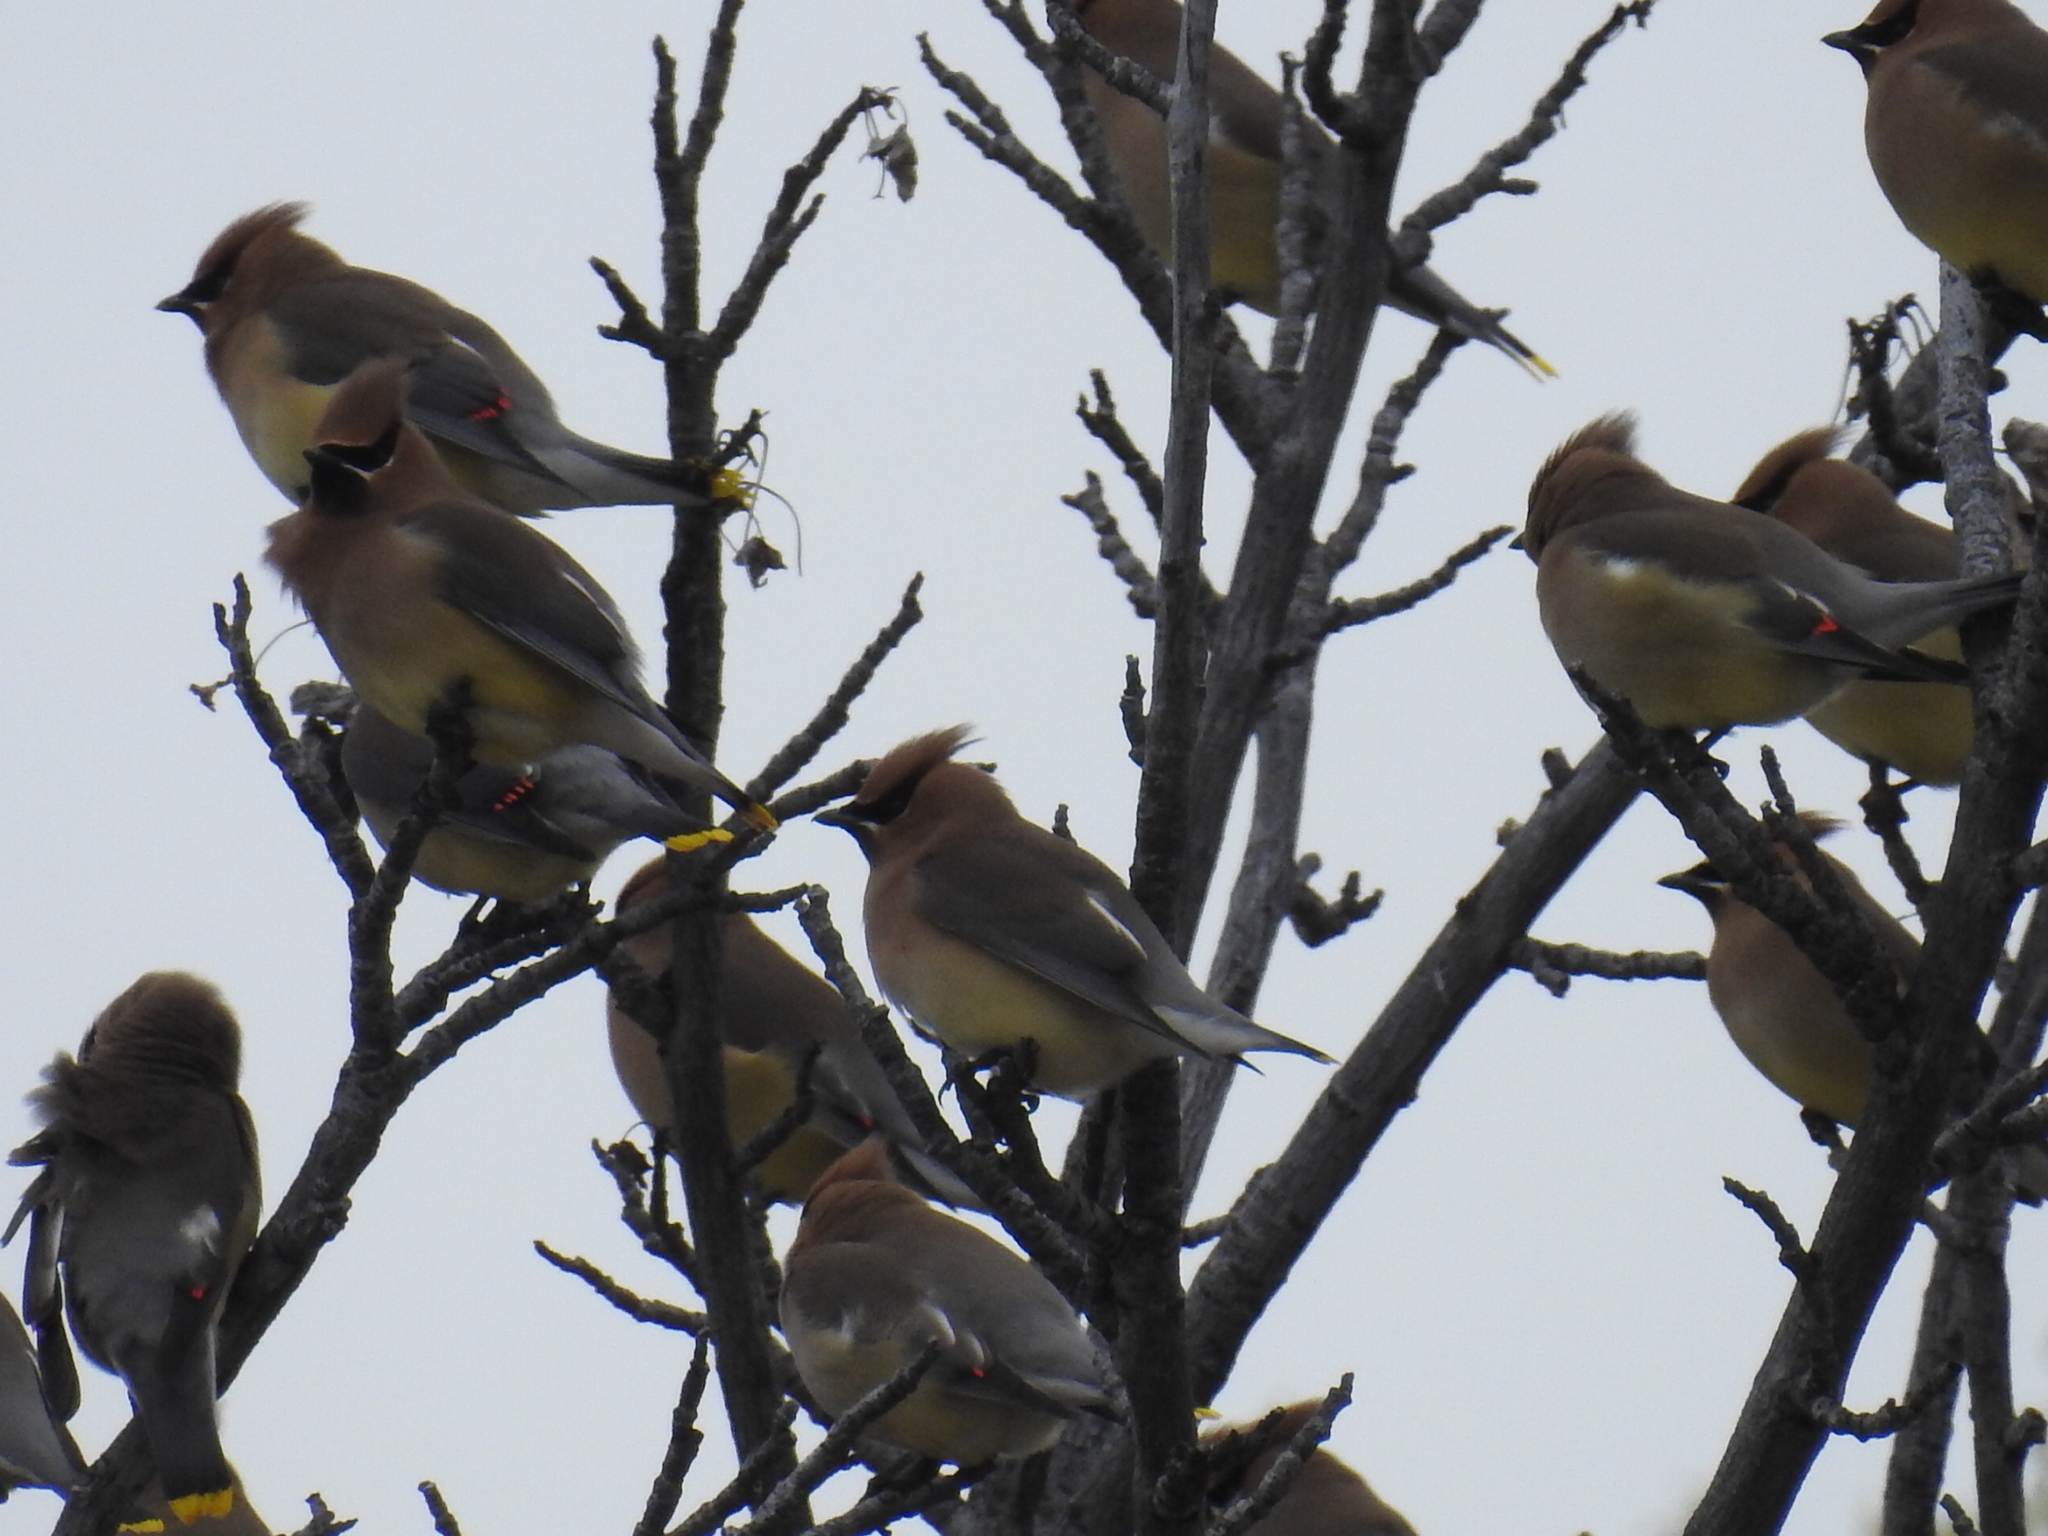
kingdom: Animalia
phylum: Chordata
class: Aves
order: Passeriformes
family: Bombycillidae
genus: Bombycilla
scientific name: Bombycilla cedrorum
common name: Cedar waxwing
